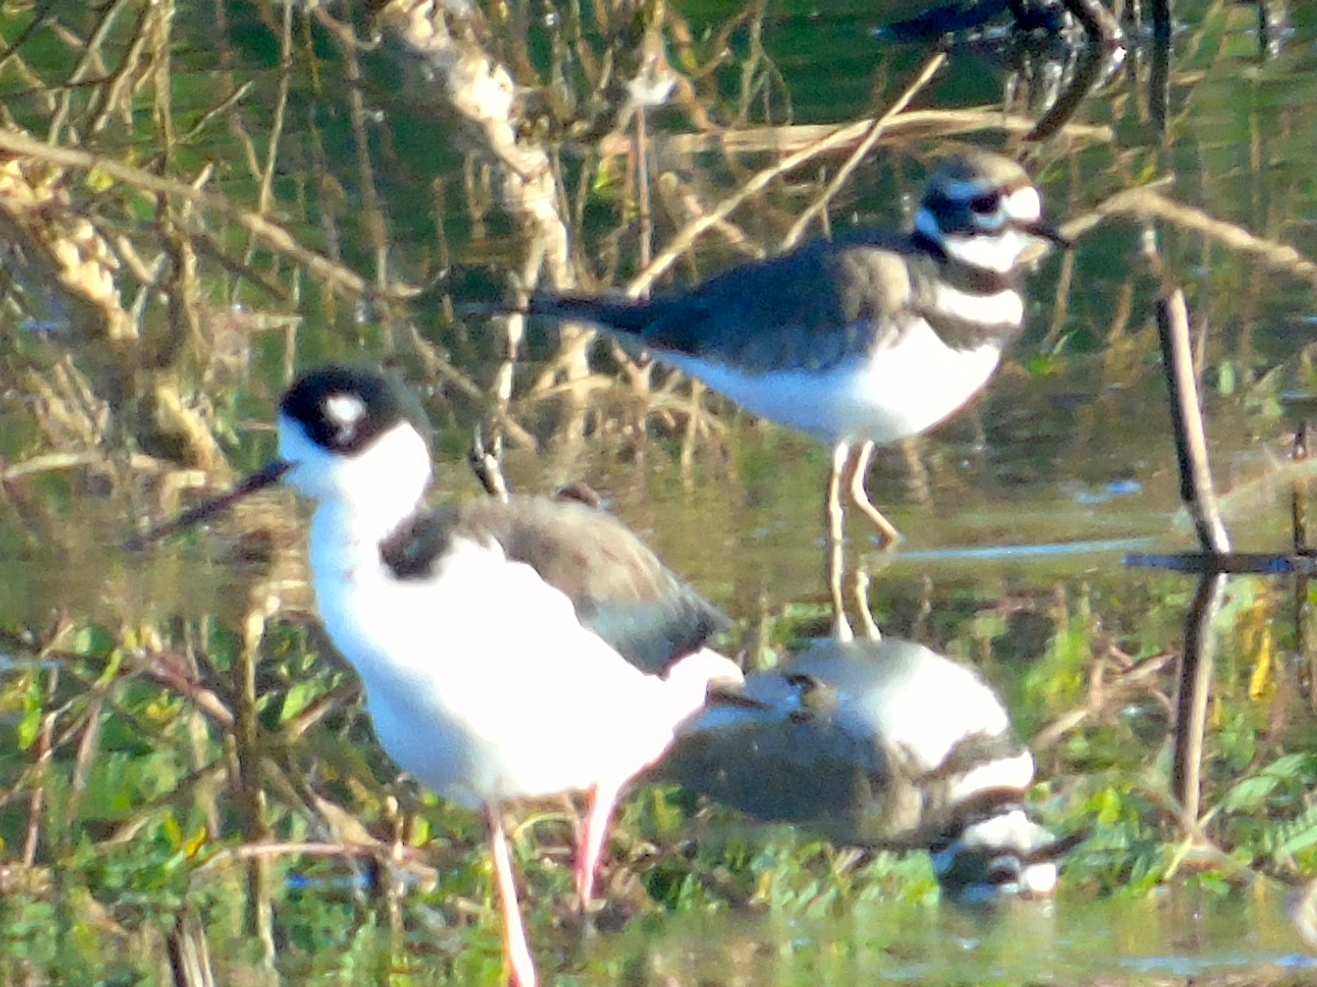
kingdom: Animalia
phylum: Chordata
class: Aves
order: Charadriiformes
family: Charadriidae
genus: Charadrius
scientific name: Charadrius vociferus
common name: Killdeer
